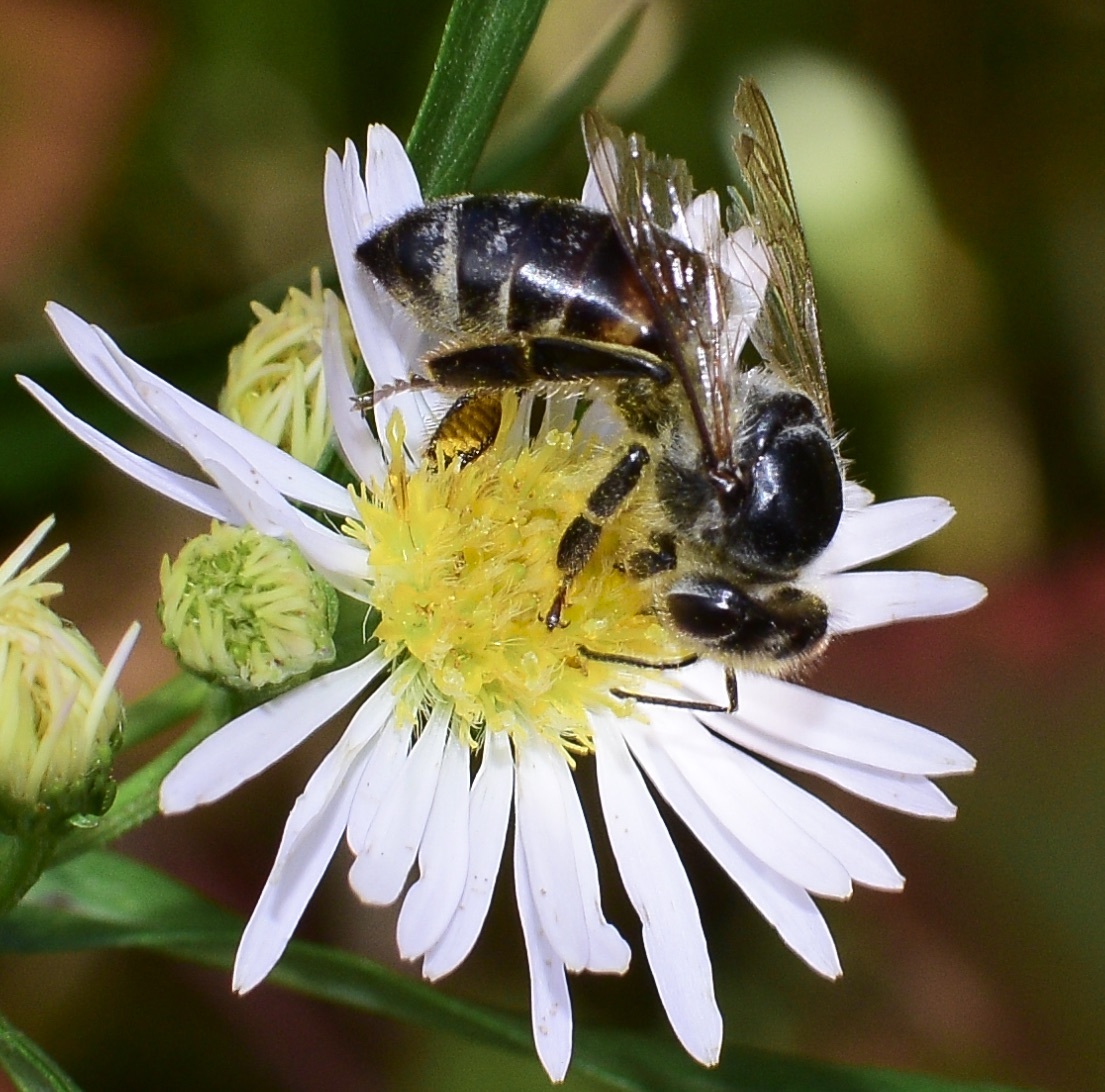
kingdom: Animalia
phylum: Arthropoda
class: Insecta
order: Hymenoptera
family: Apidae
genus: Apis
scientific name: Apis mellifera
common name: Honey bee
